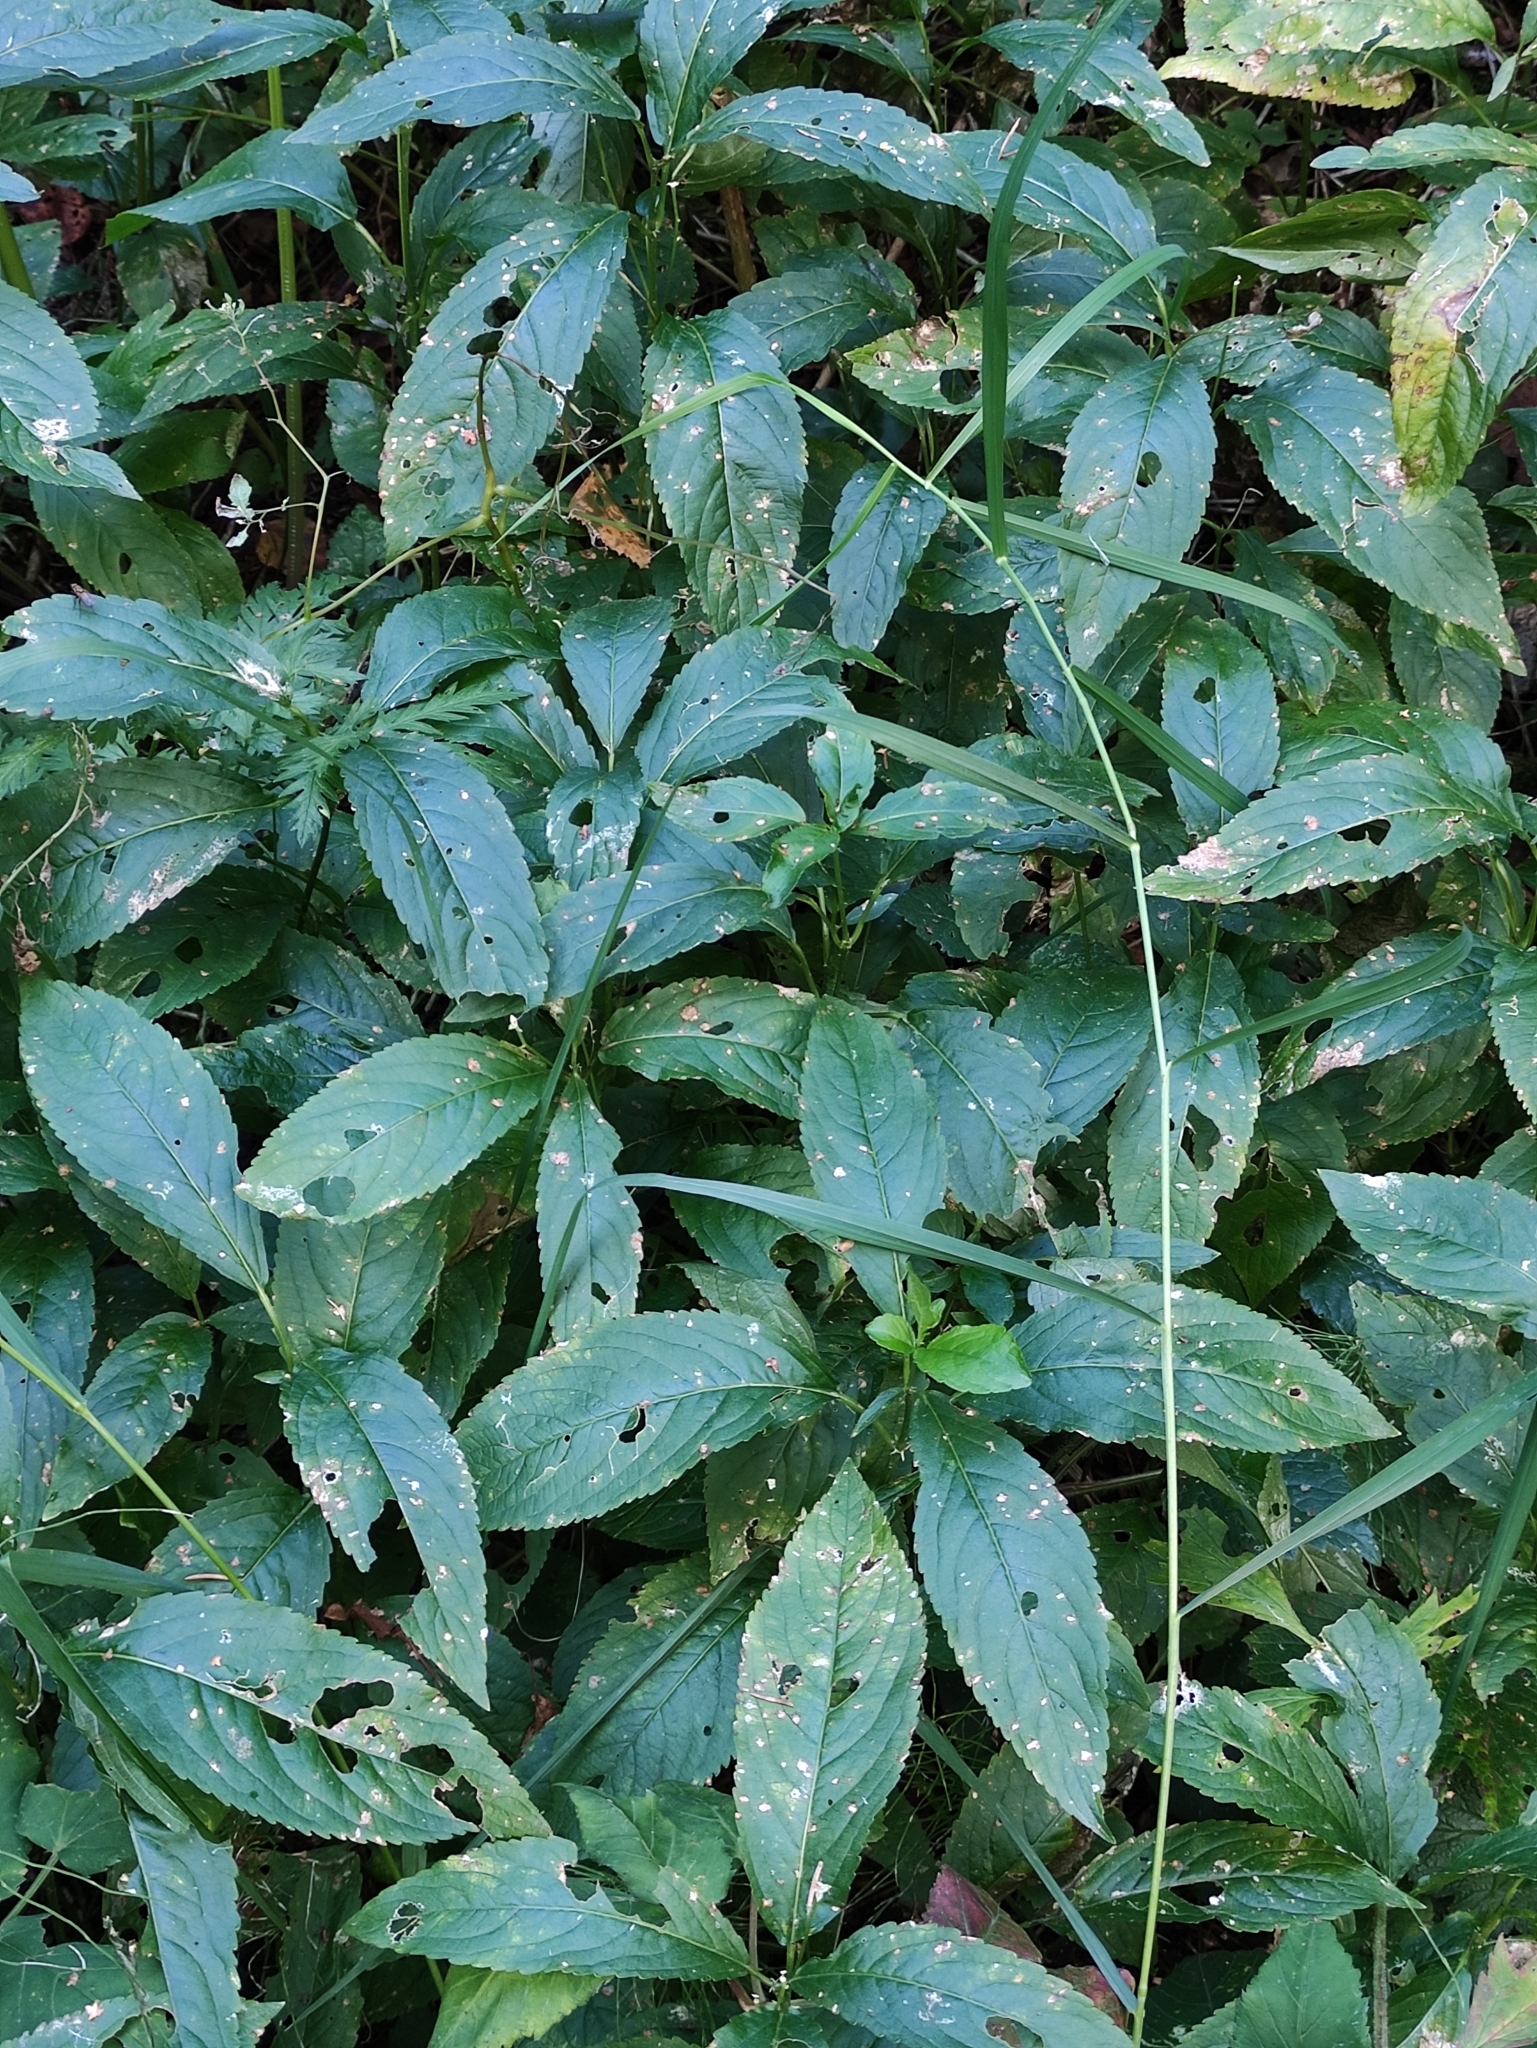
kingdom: Plantae
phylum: Tracheophyta
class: Magnoliopsida
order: Malpighiales
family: Euphorbiaceae
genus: Mercurialis
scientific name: Mercurialis perennis
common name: Dog mercury
